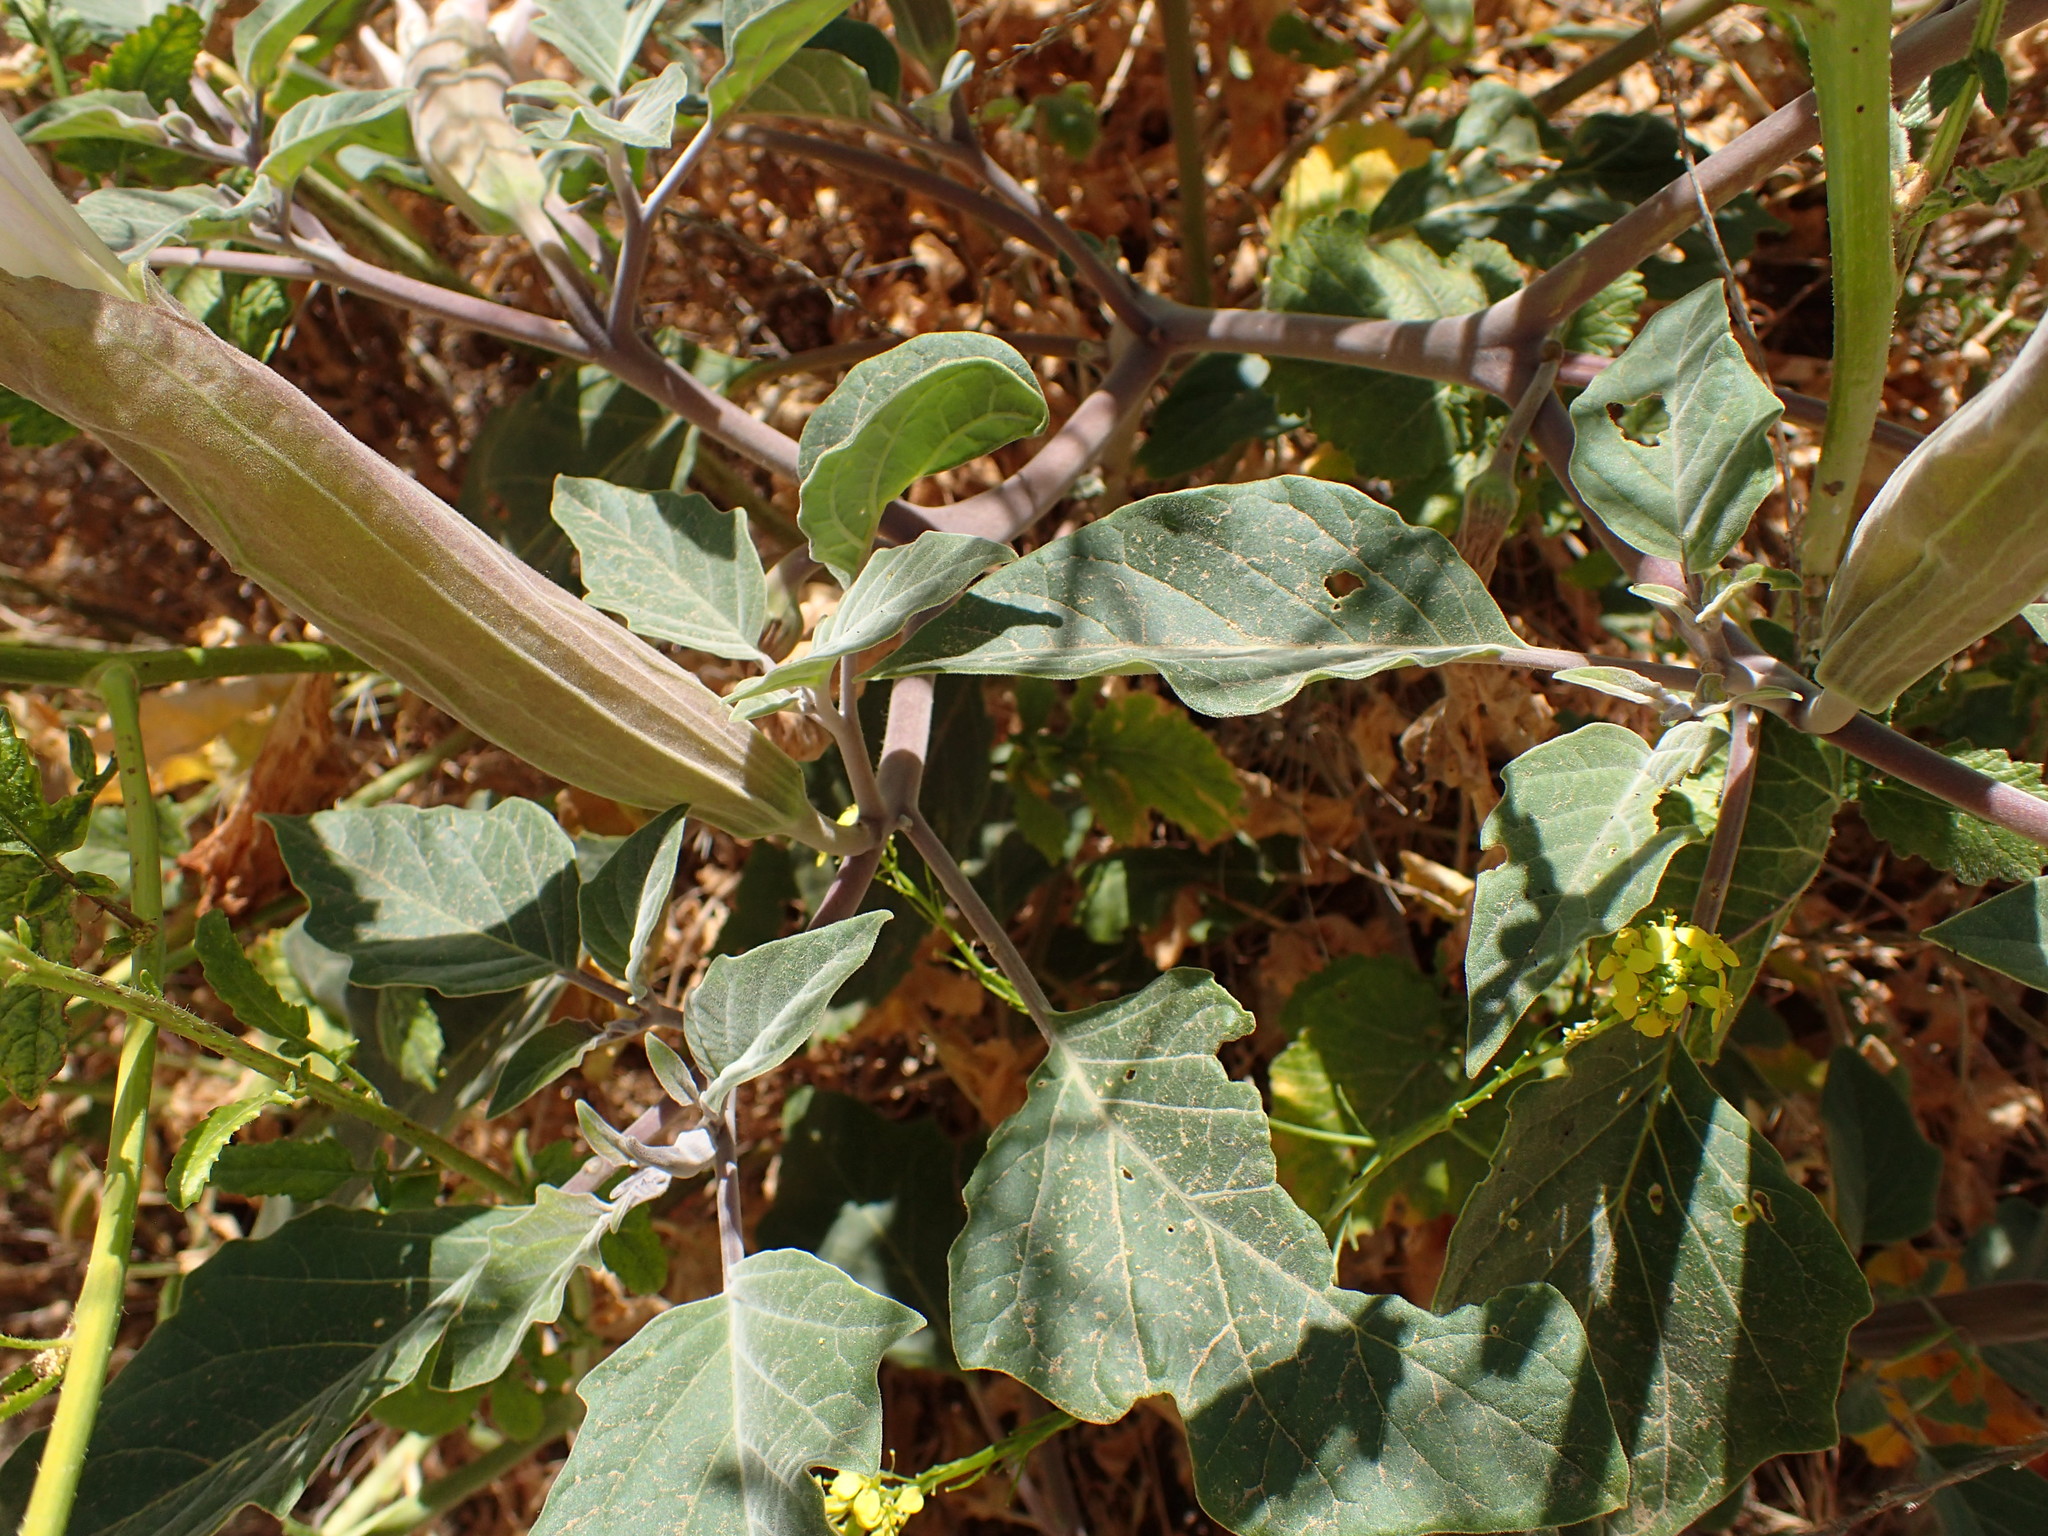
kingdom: Plantae
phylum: Tracheophyta
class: Magnoliopsida
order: Solanales
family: Solanaceae
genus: Datura
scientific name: Datura wrightii
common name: Sacred thorn-apple
